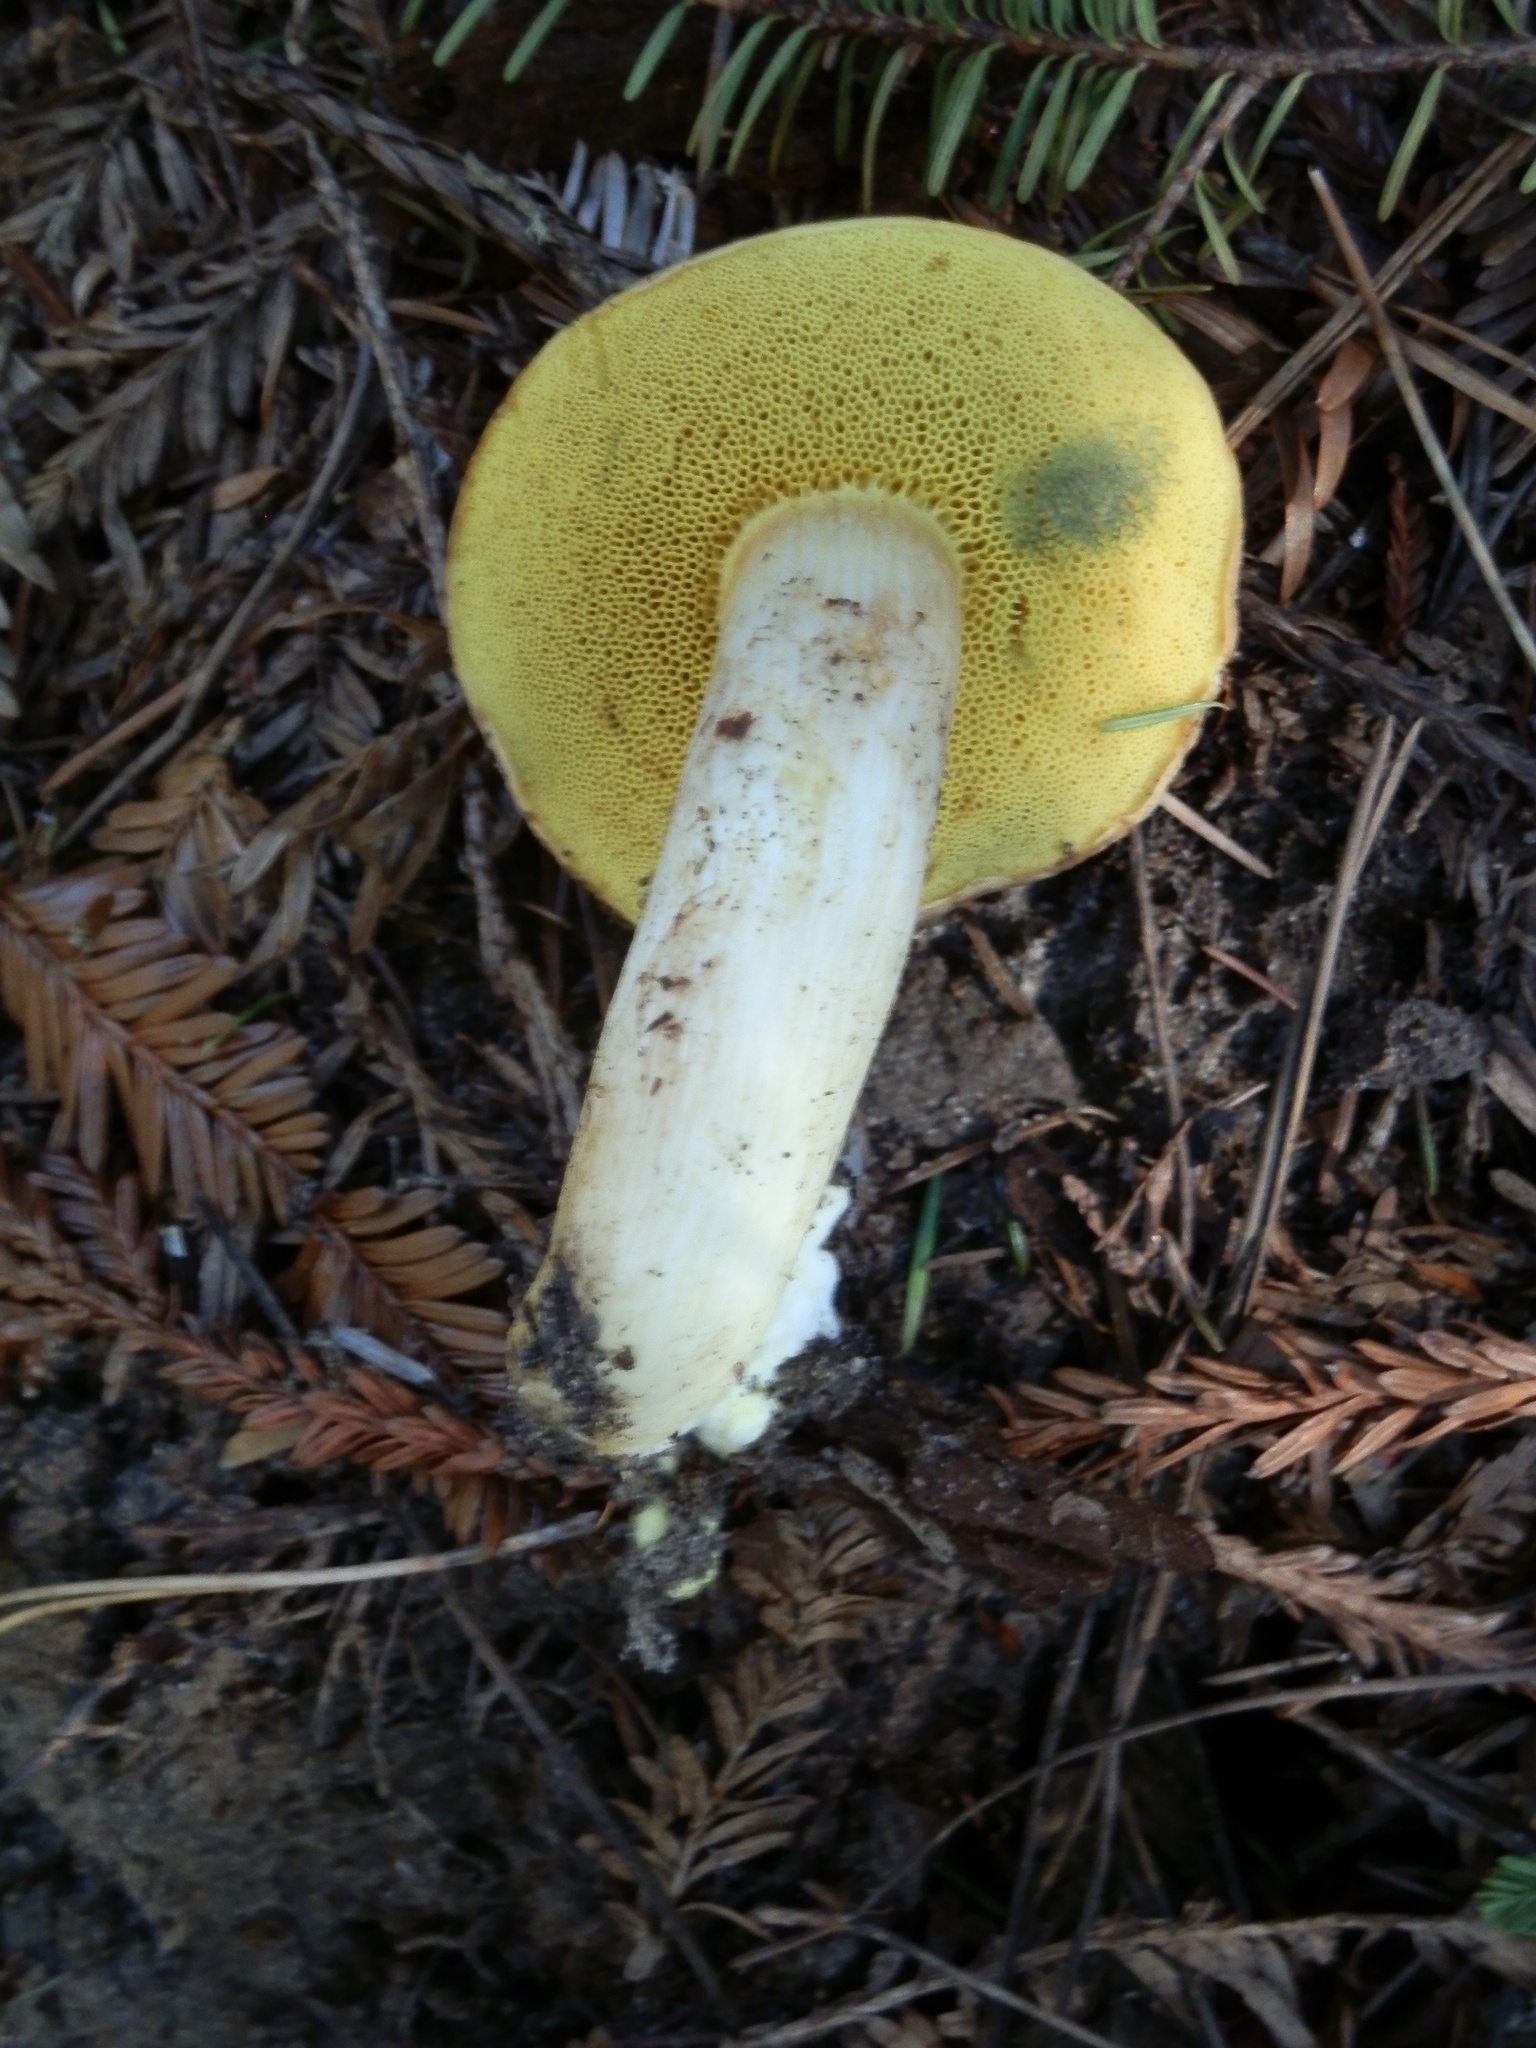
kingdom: Fungi
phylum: Basidiomycota
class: Agaricomycetes
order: Boletales
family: Boletaceae
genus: Xerocomus
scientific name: Xerocomus subtomentosus
